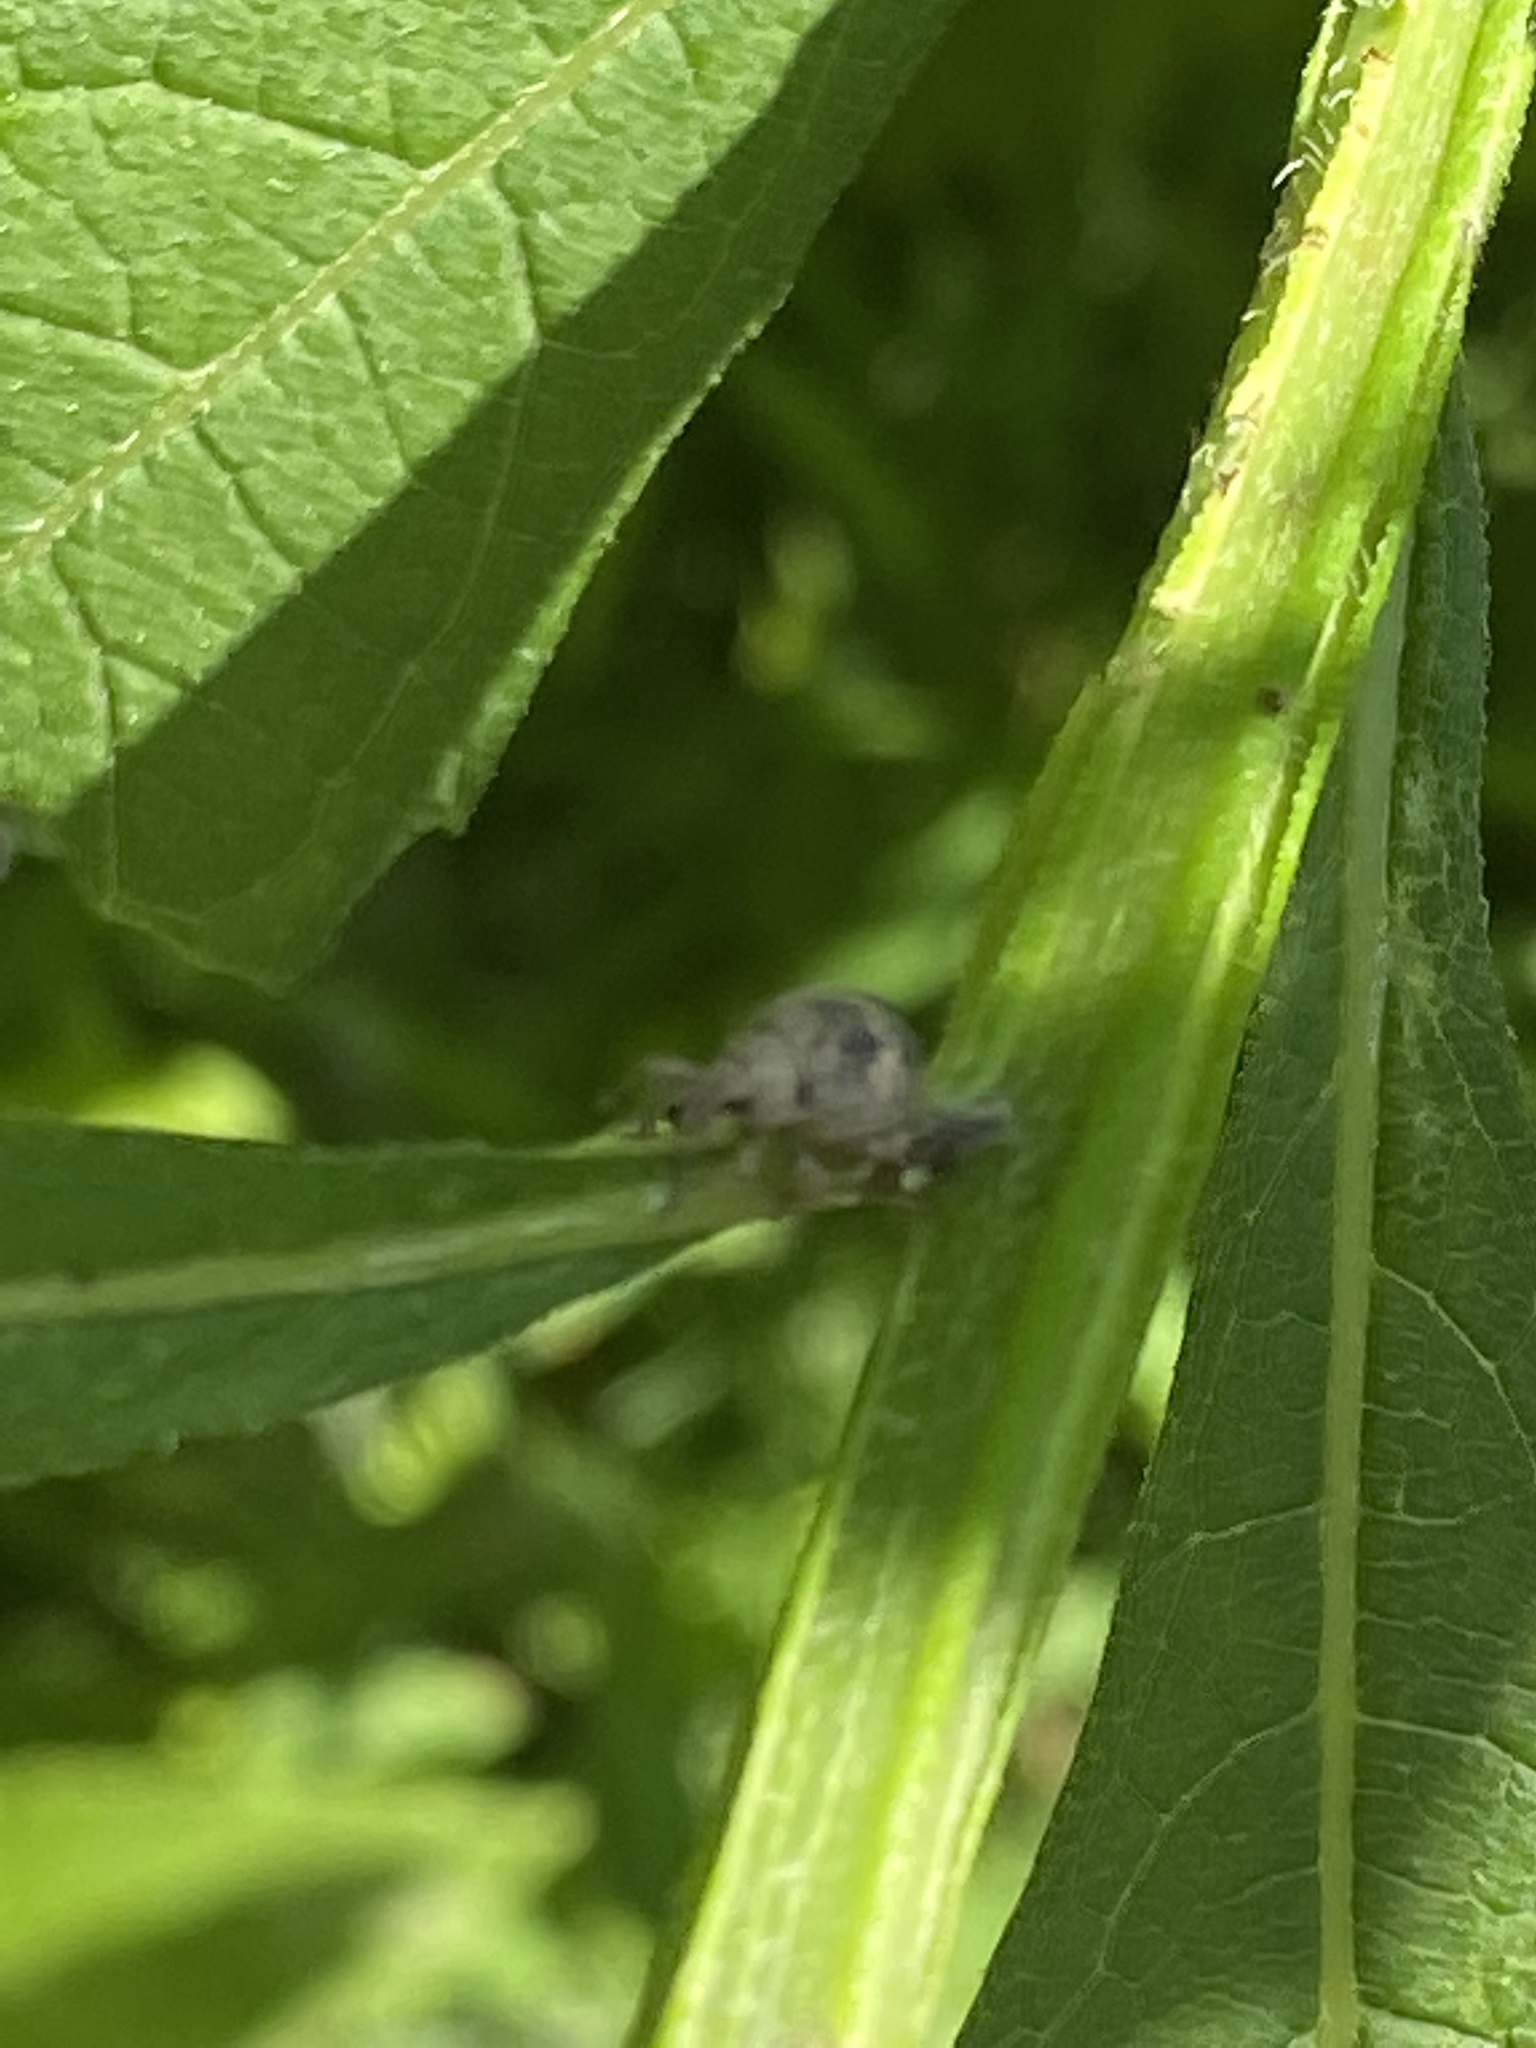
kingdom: Animalia
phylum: Arthropoda
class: Insecta
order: Coleoptera
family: Curculionidae
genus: Pseudocneorhinus
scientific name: Pseudocneorhinus bifasciatus
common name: Two-banded japanese weevil
